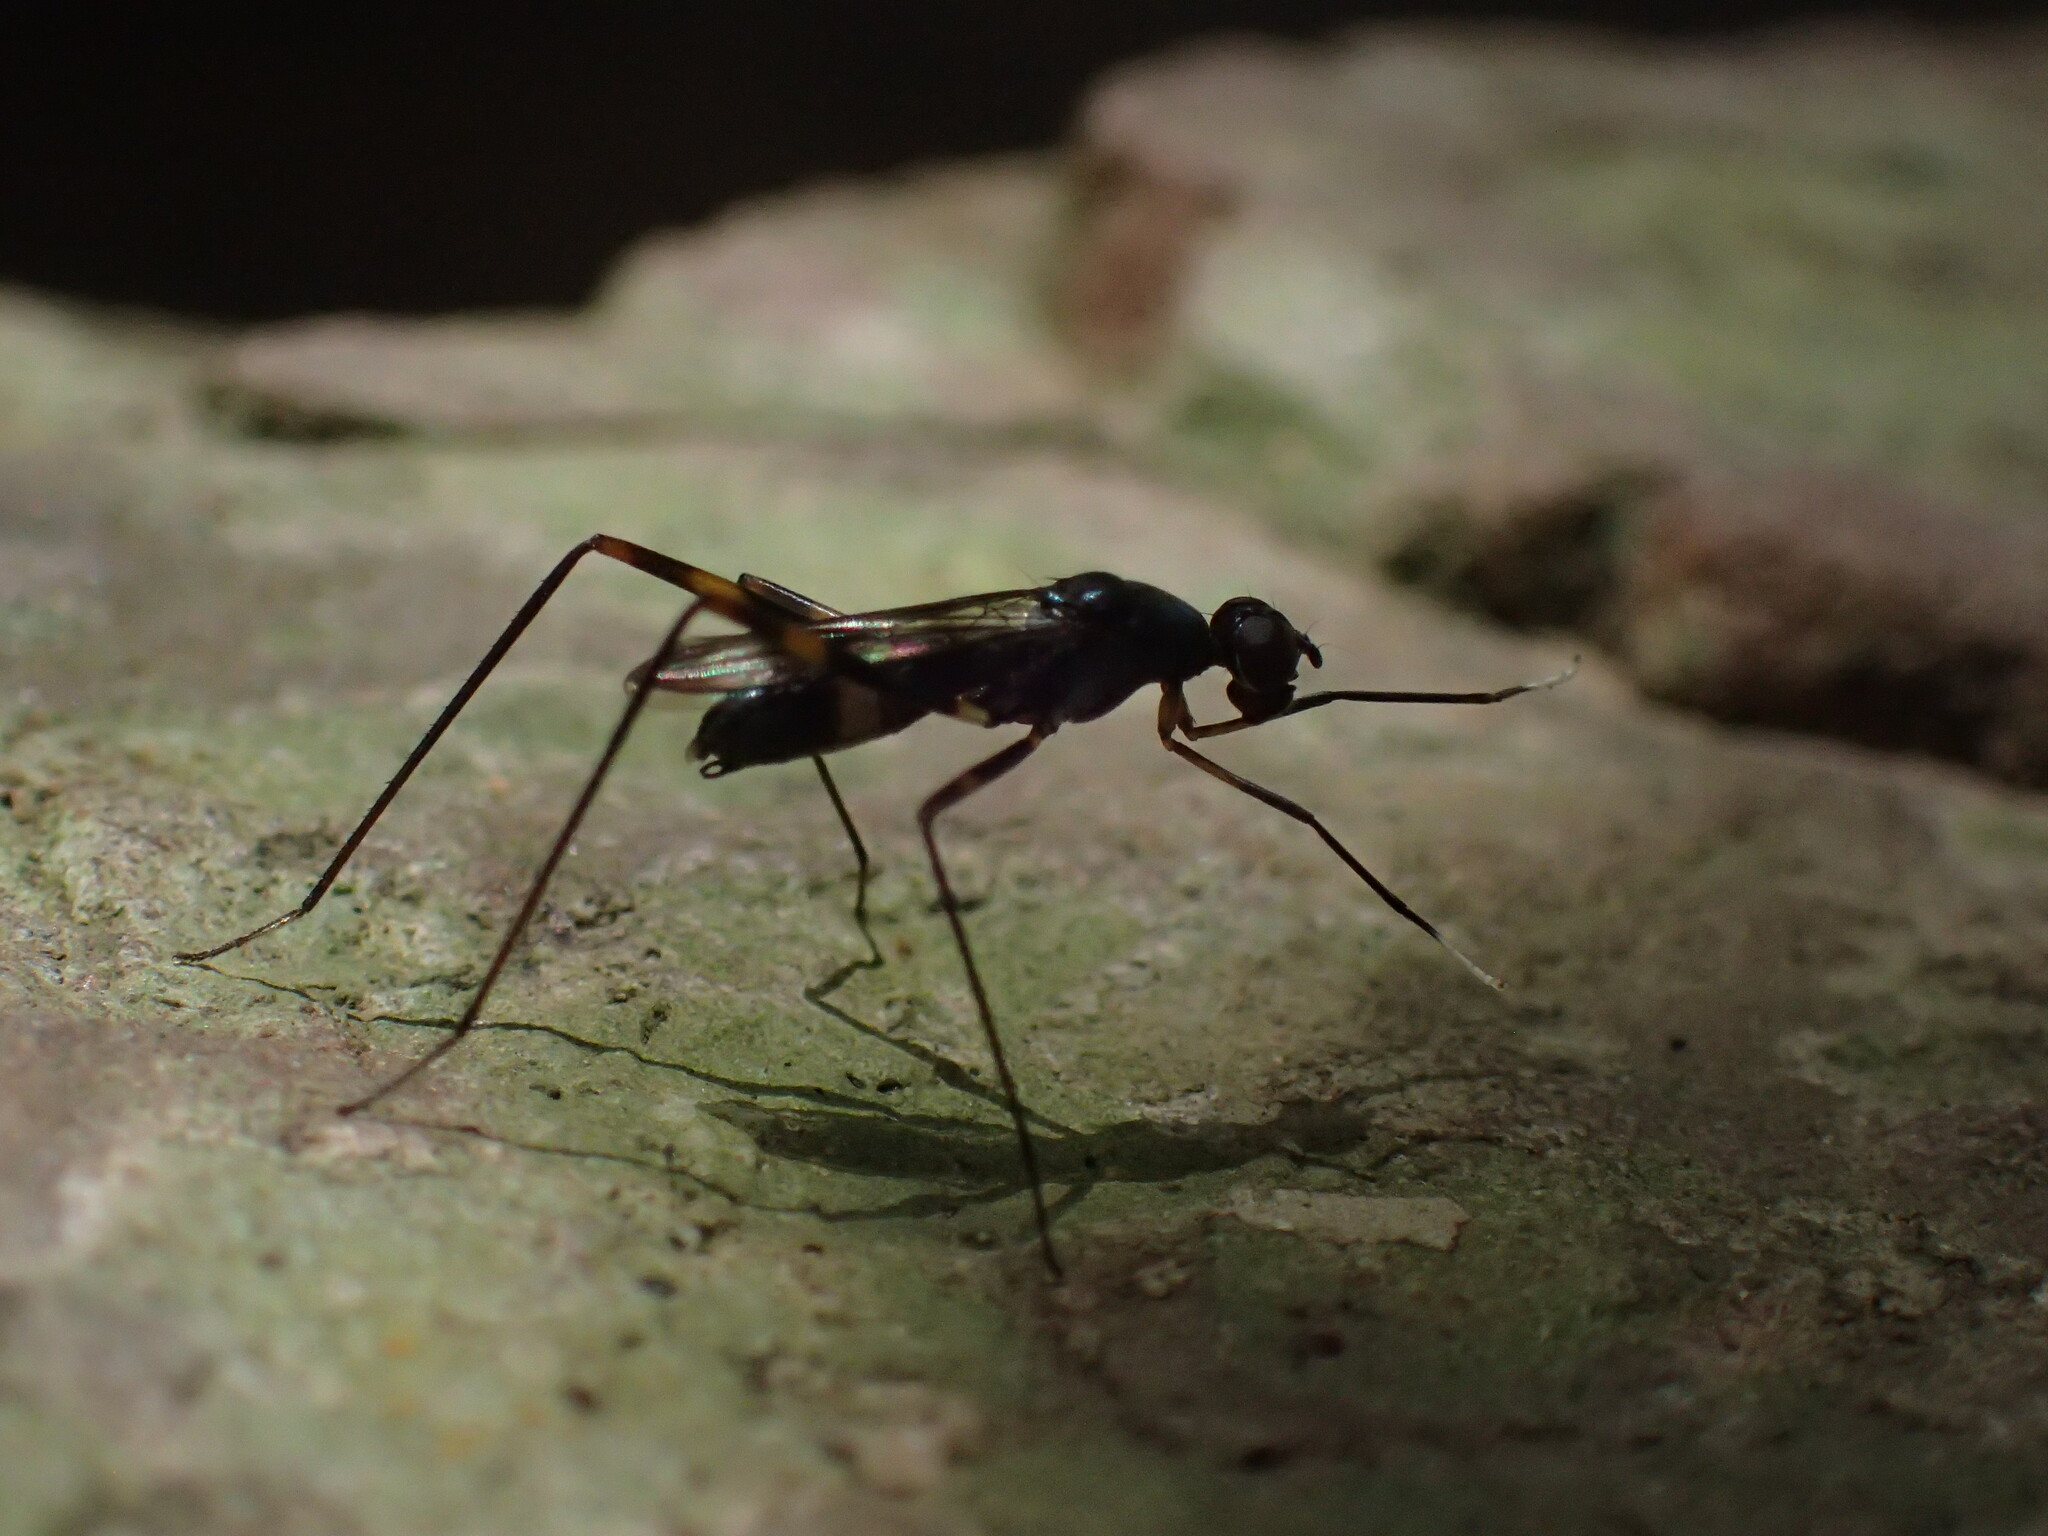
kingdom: Animalia
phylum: Arthropoda
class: Insecta
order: Diptera
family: Micropezidae
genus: Hybobata
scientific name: Hybobata
